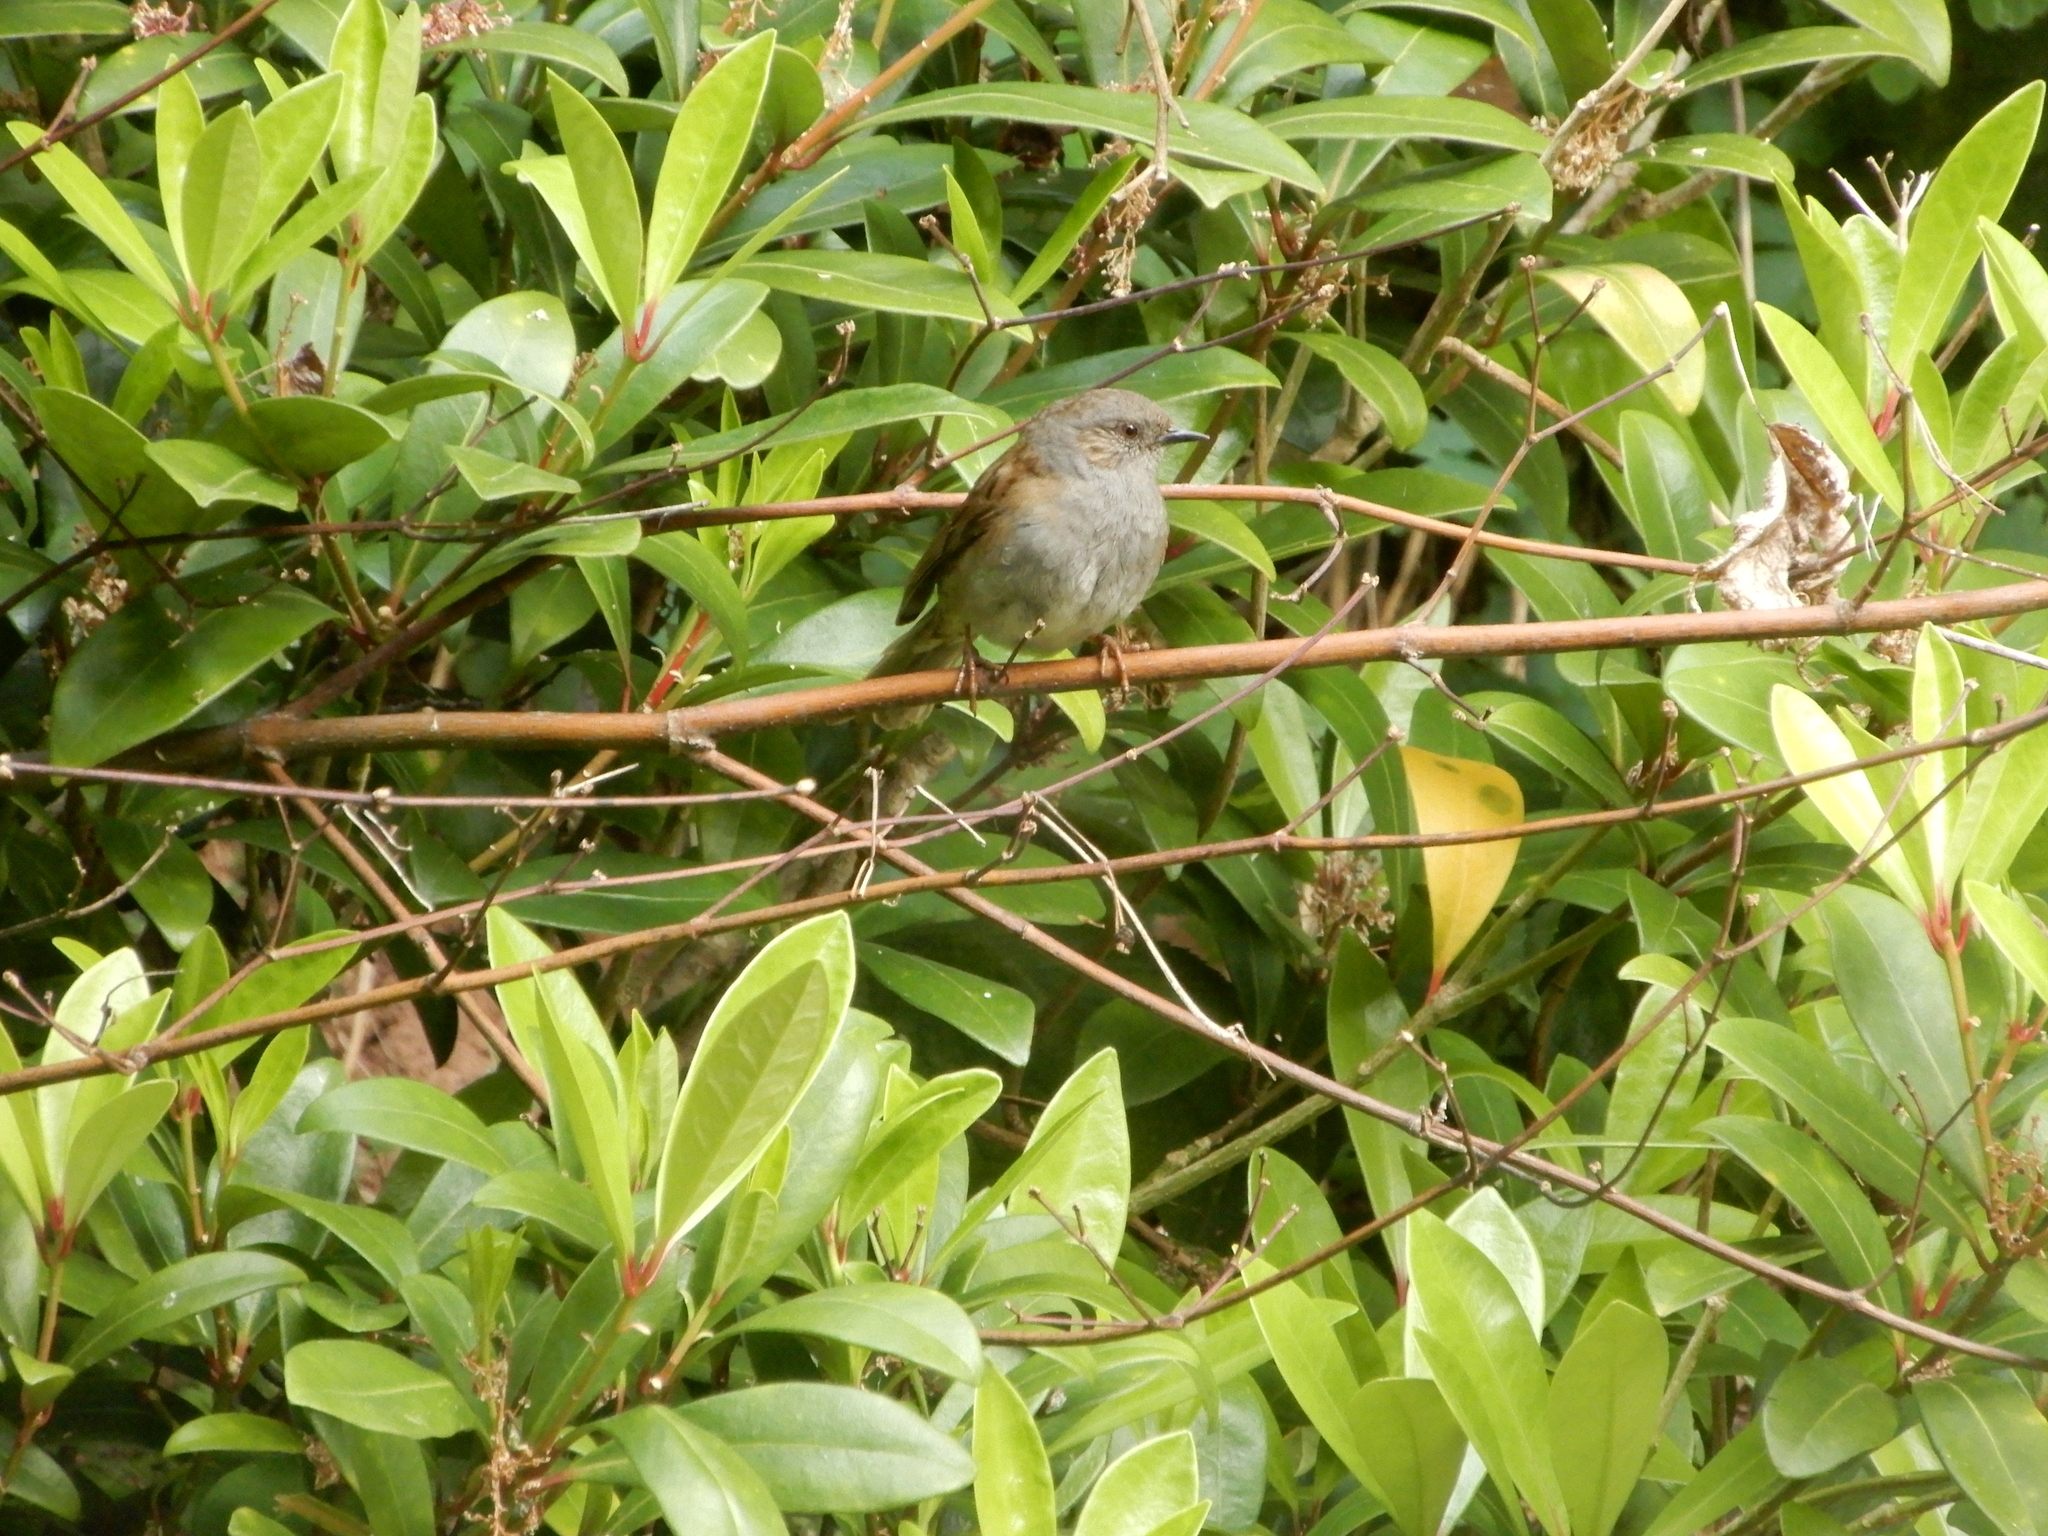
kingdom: Animalia
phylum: Chordata
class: Aves
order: Passeriformes
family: Prunellidae
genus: Prunella
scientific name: Prunella modularis
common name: Dunnock
